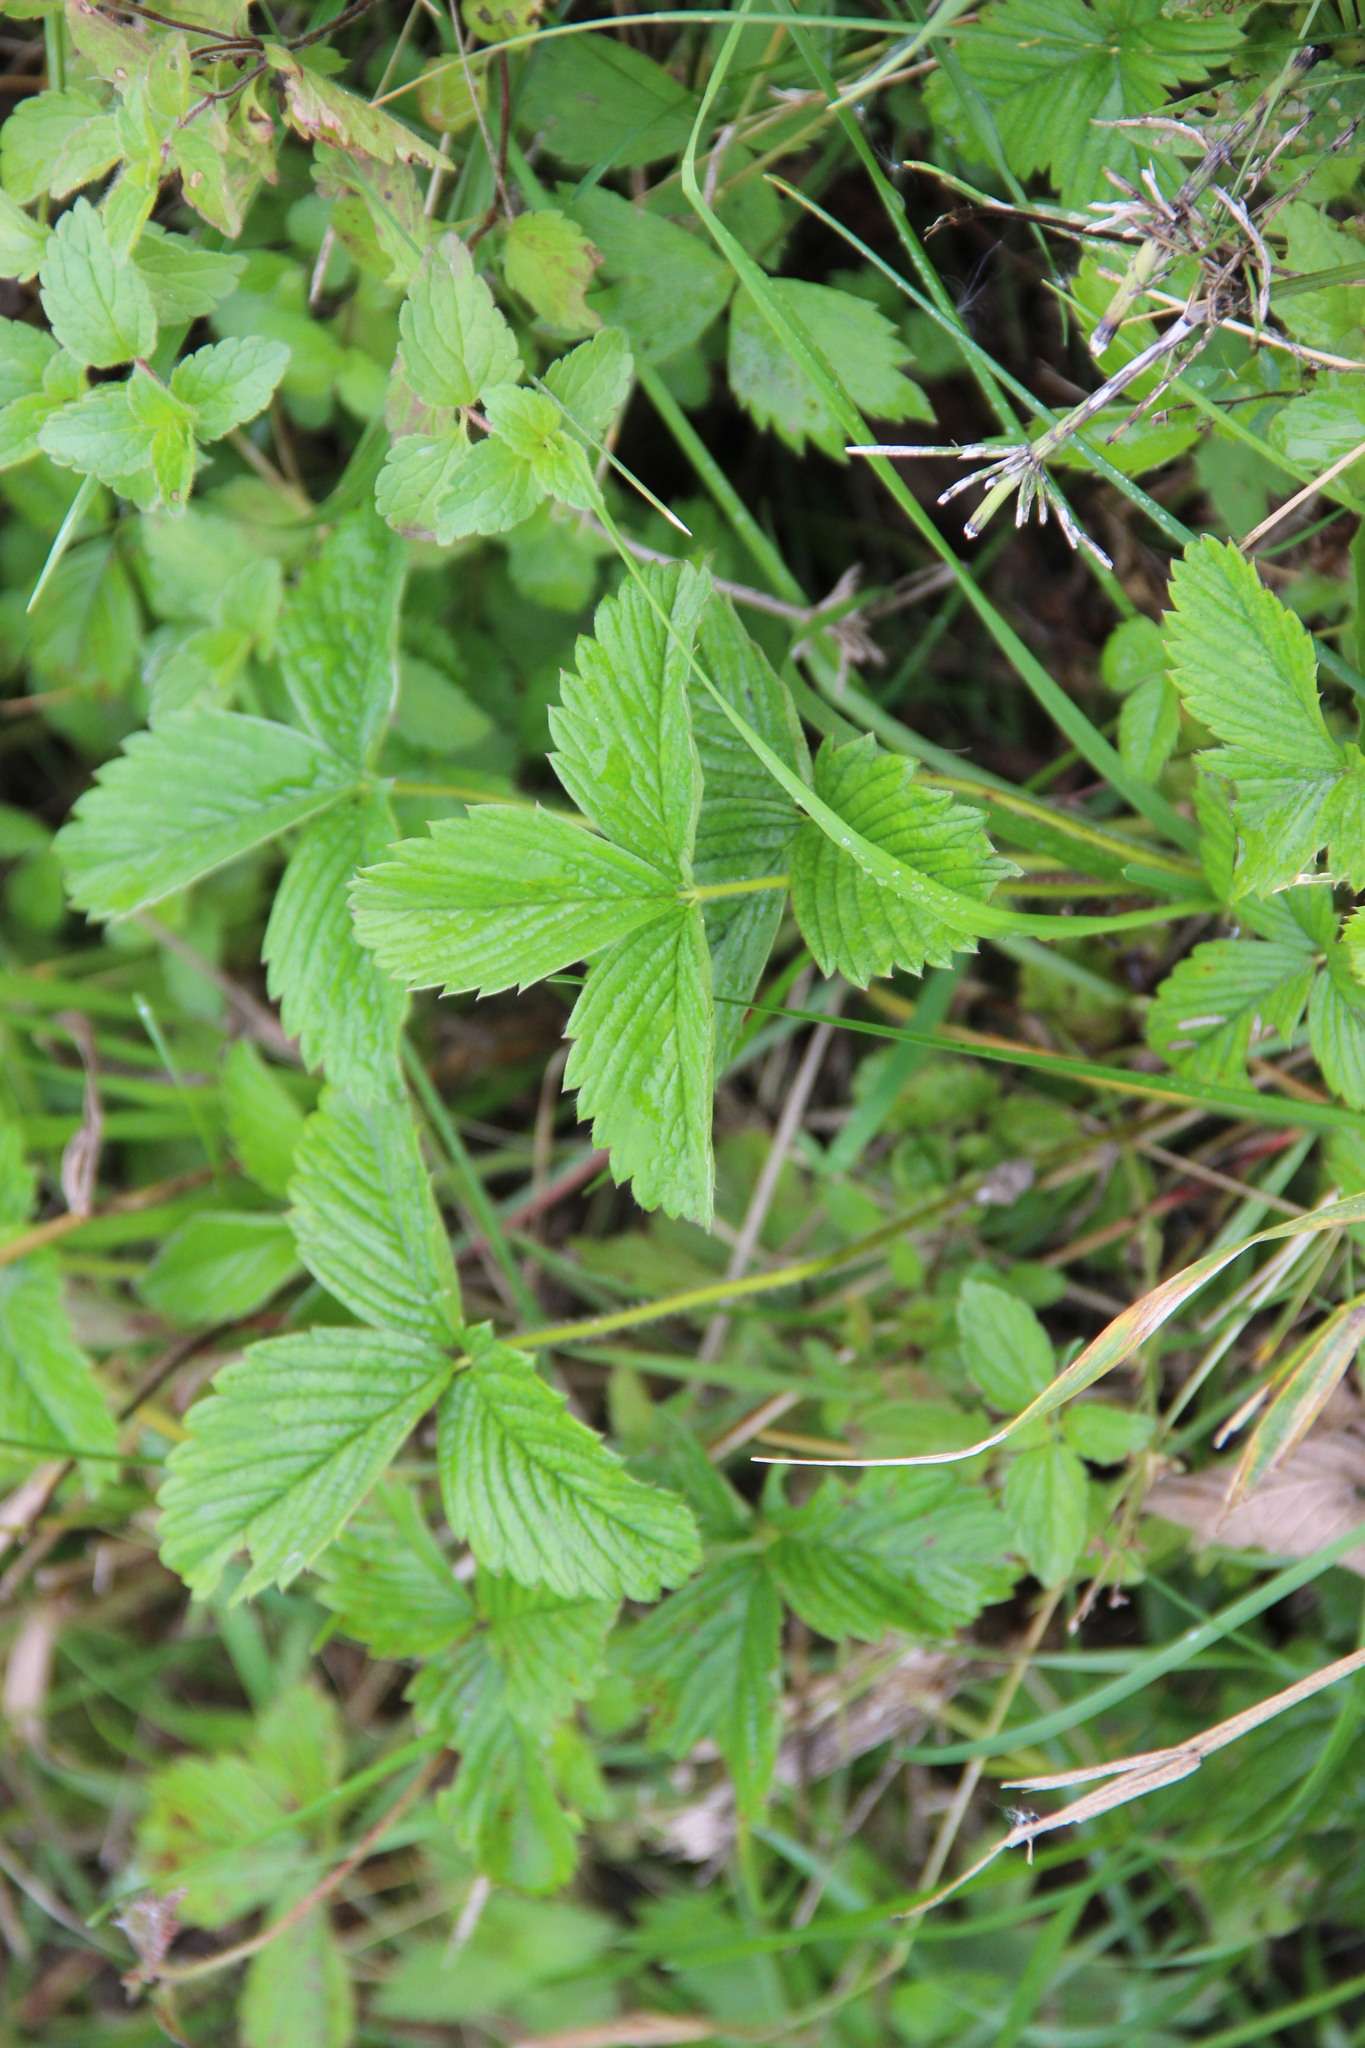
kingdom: Plantae
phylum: Tracheophyta
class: Magnoliopsida
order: Rosales
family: Rosaceae
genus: Fragaria
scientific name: Fragaria viridis
